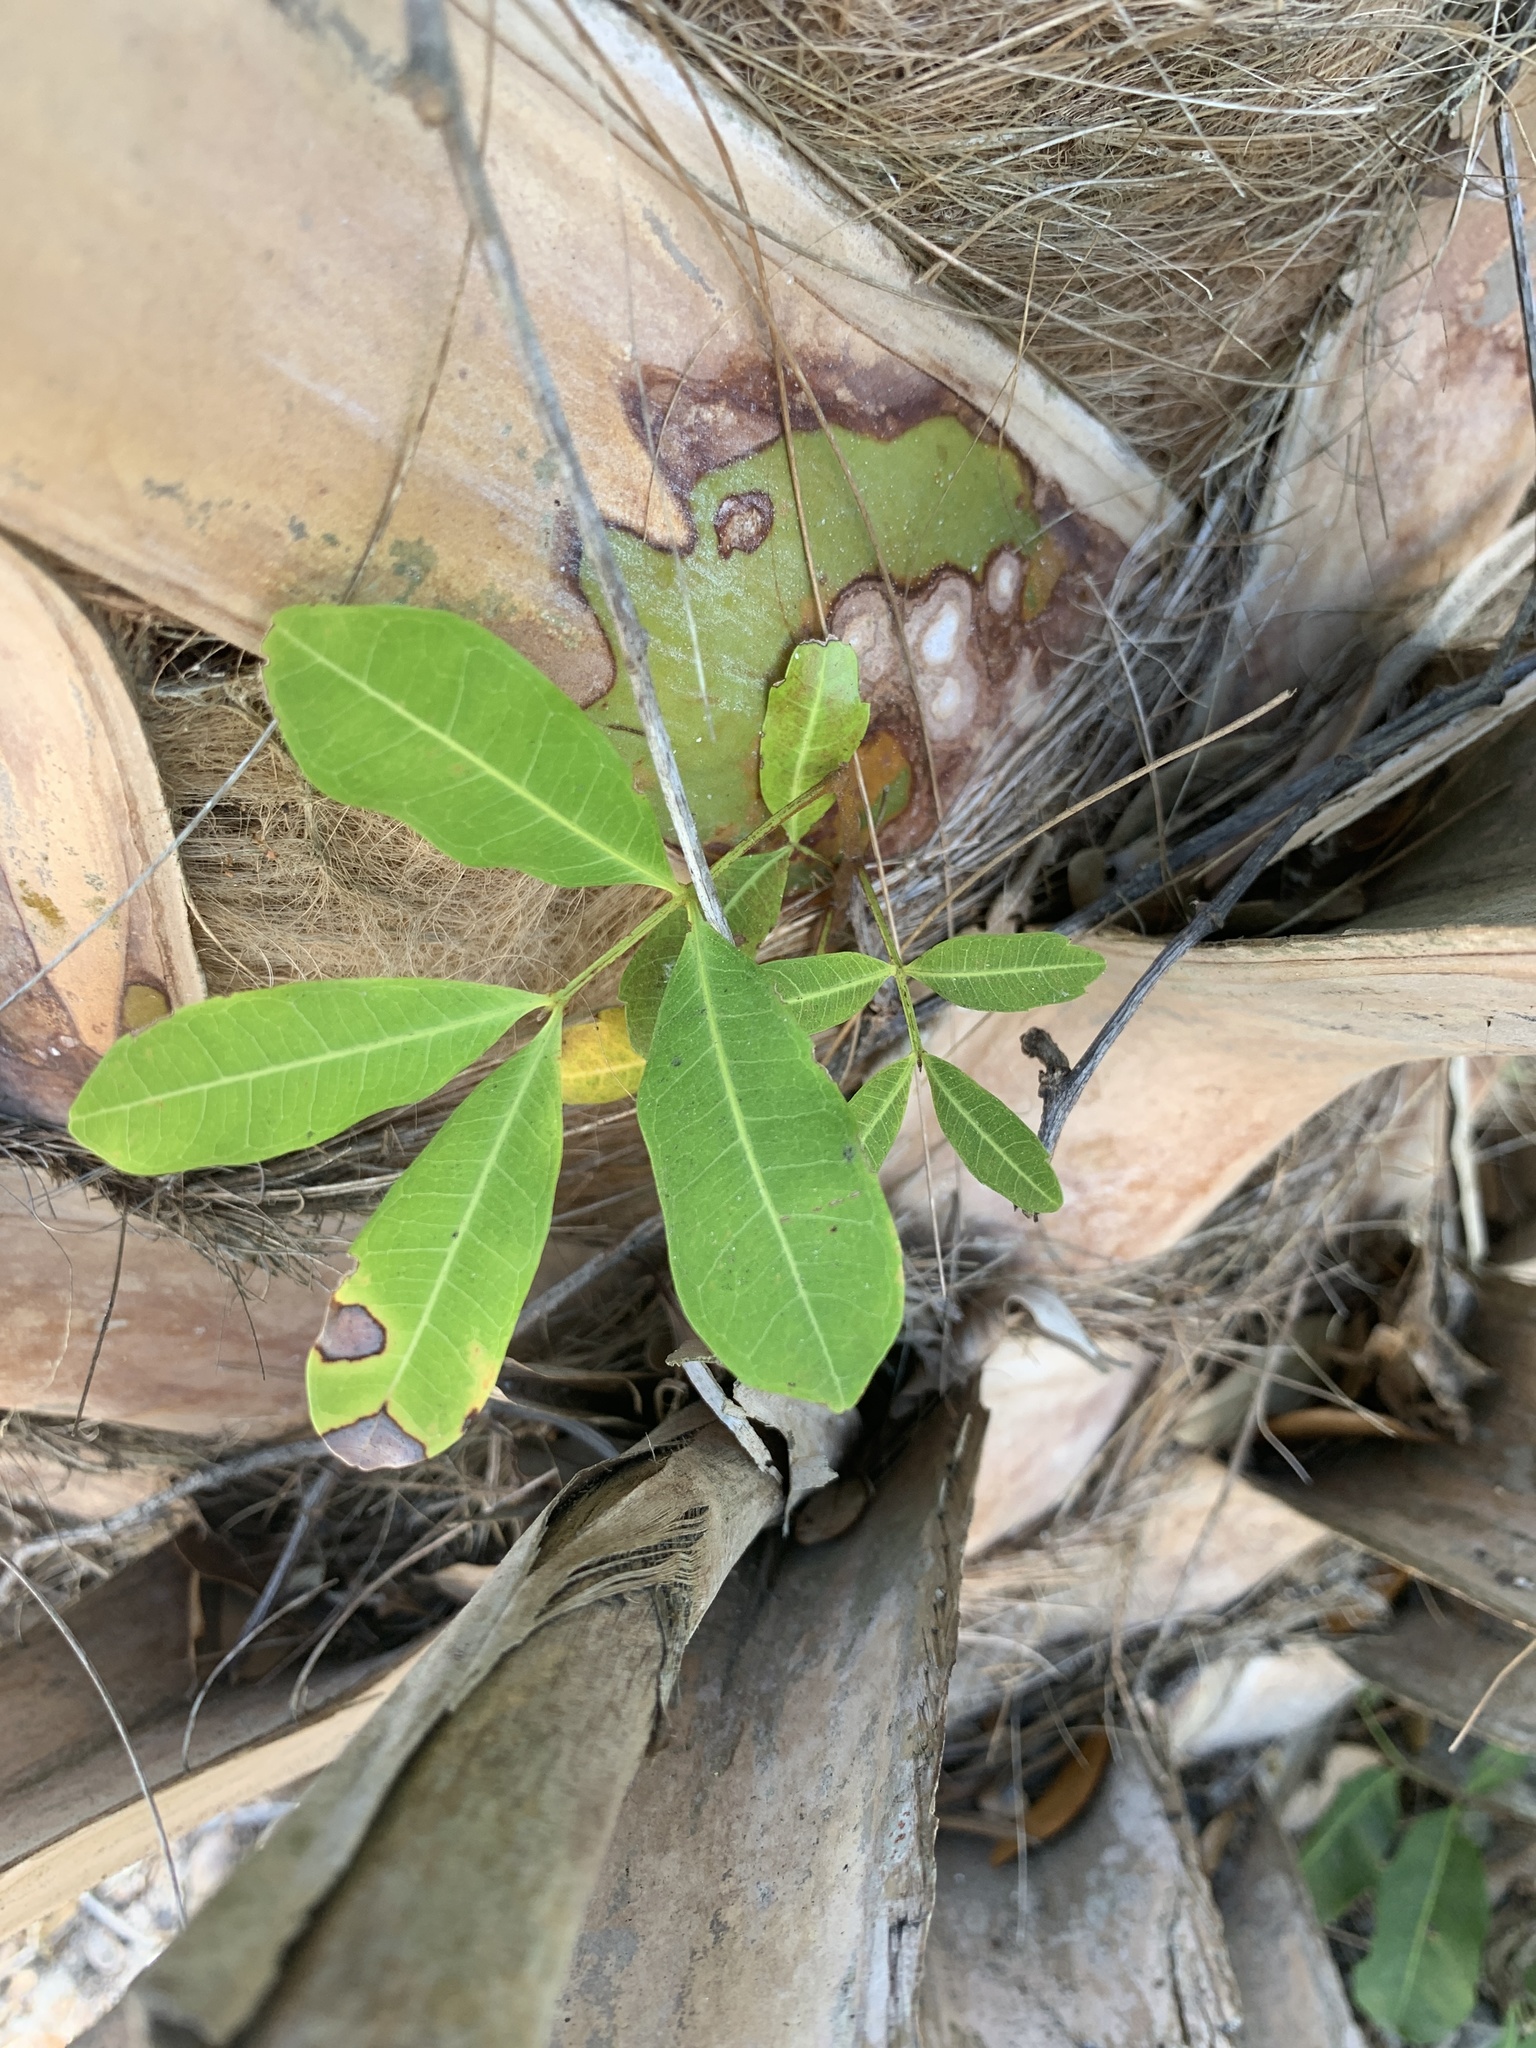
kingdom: Plantae
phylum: Tracheophyta
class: Magnoliopsida
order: Sapindales
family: Sapindaceae
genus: Cupaniopsis
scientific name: Cupaniopsis anacardioides
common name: Carrotwood
